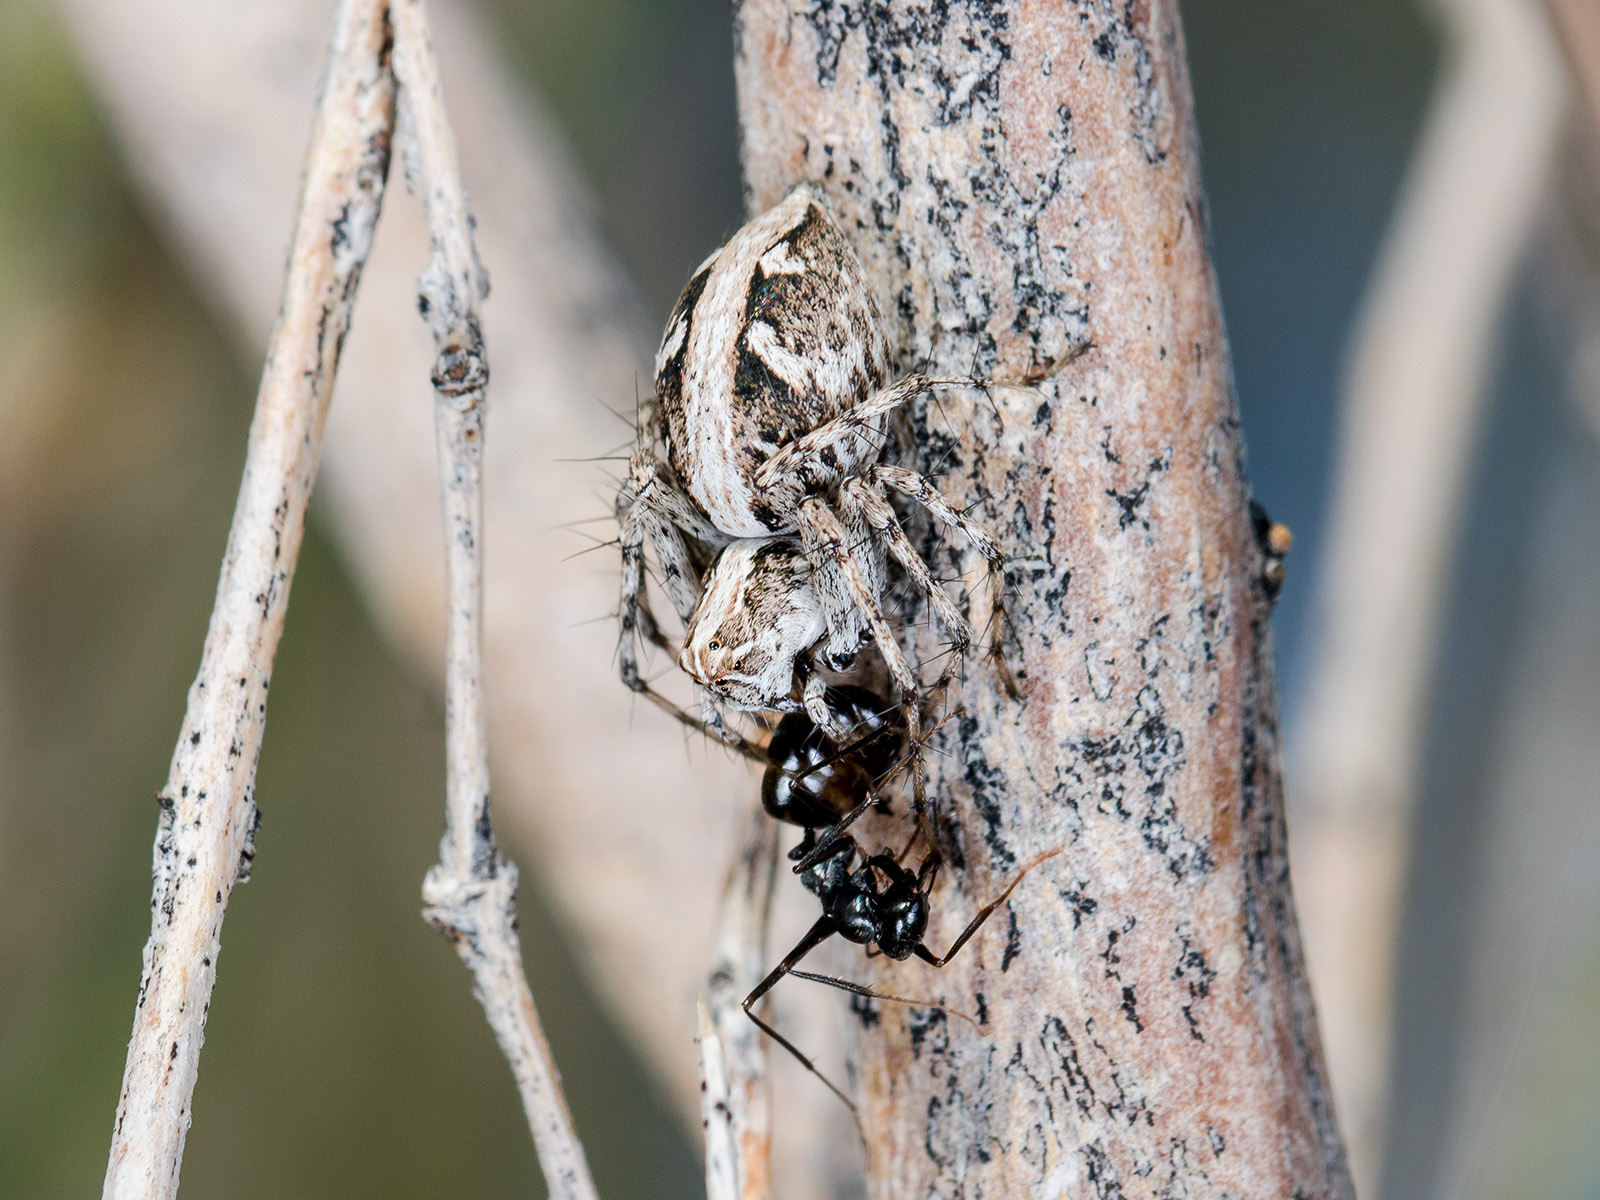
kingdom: Animalia
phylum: Arthropoda
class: Arachnida
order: Araneae
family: Oxyopidae
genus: Oxyopes
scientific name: Oxyopes globifer
